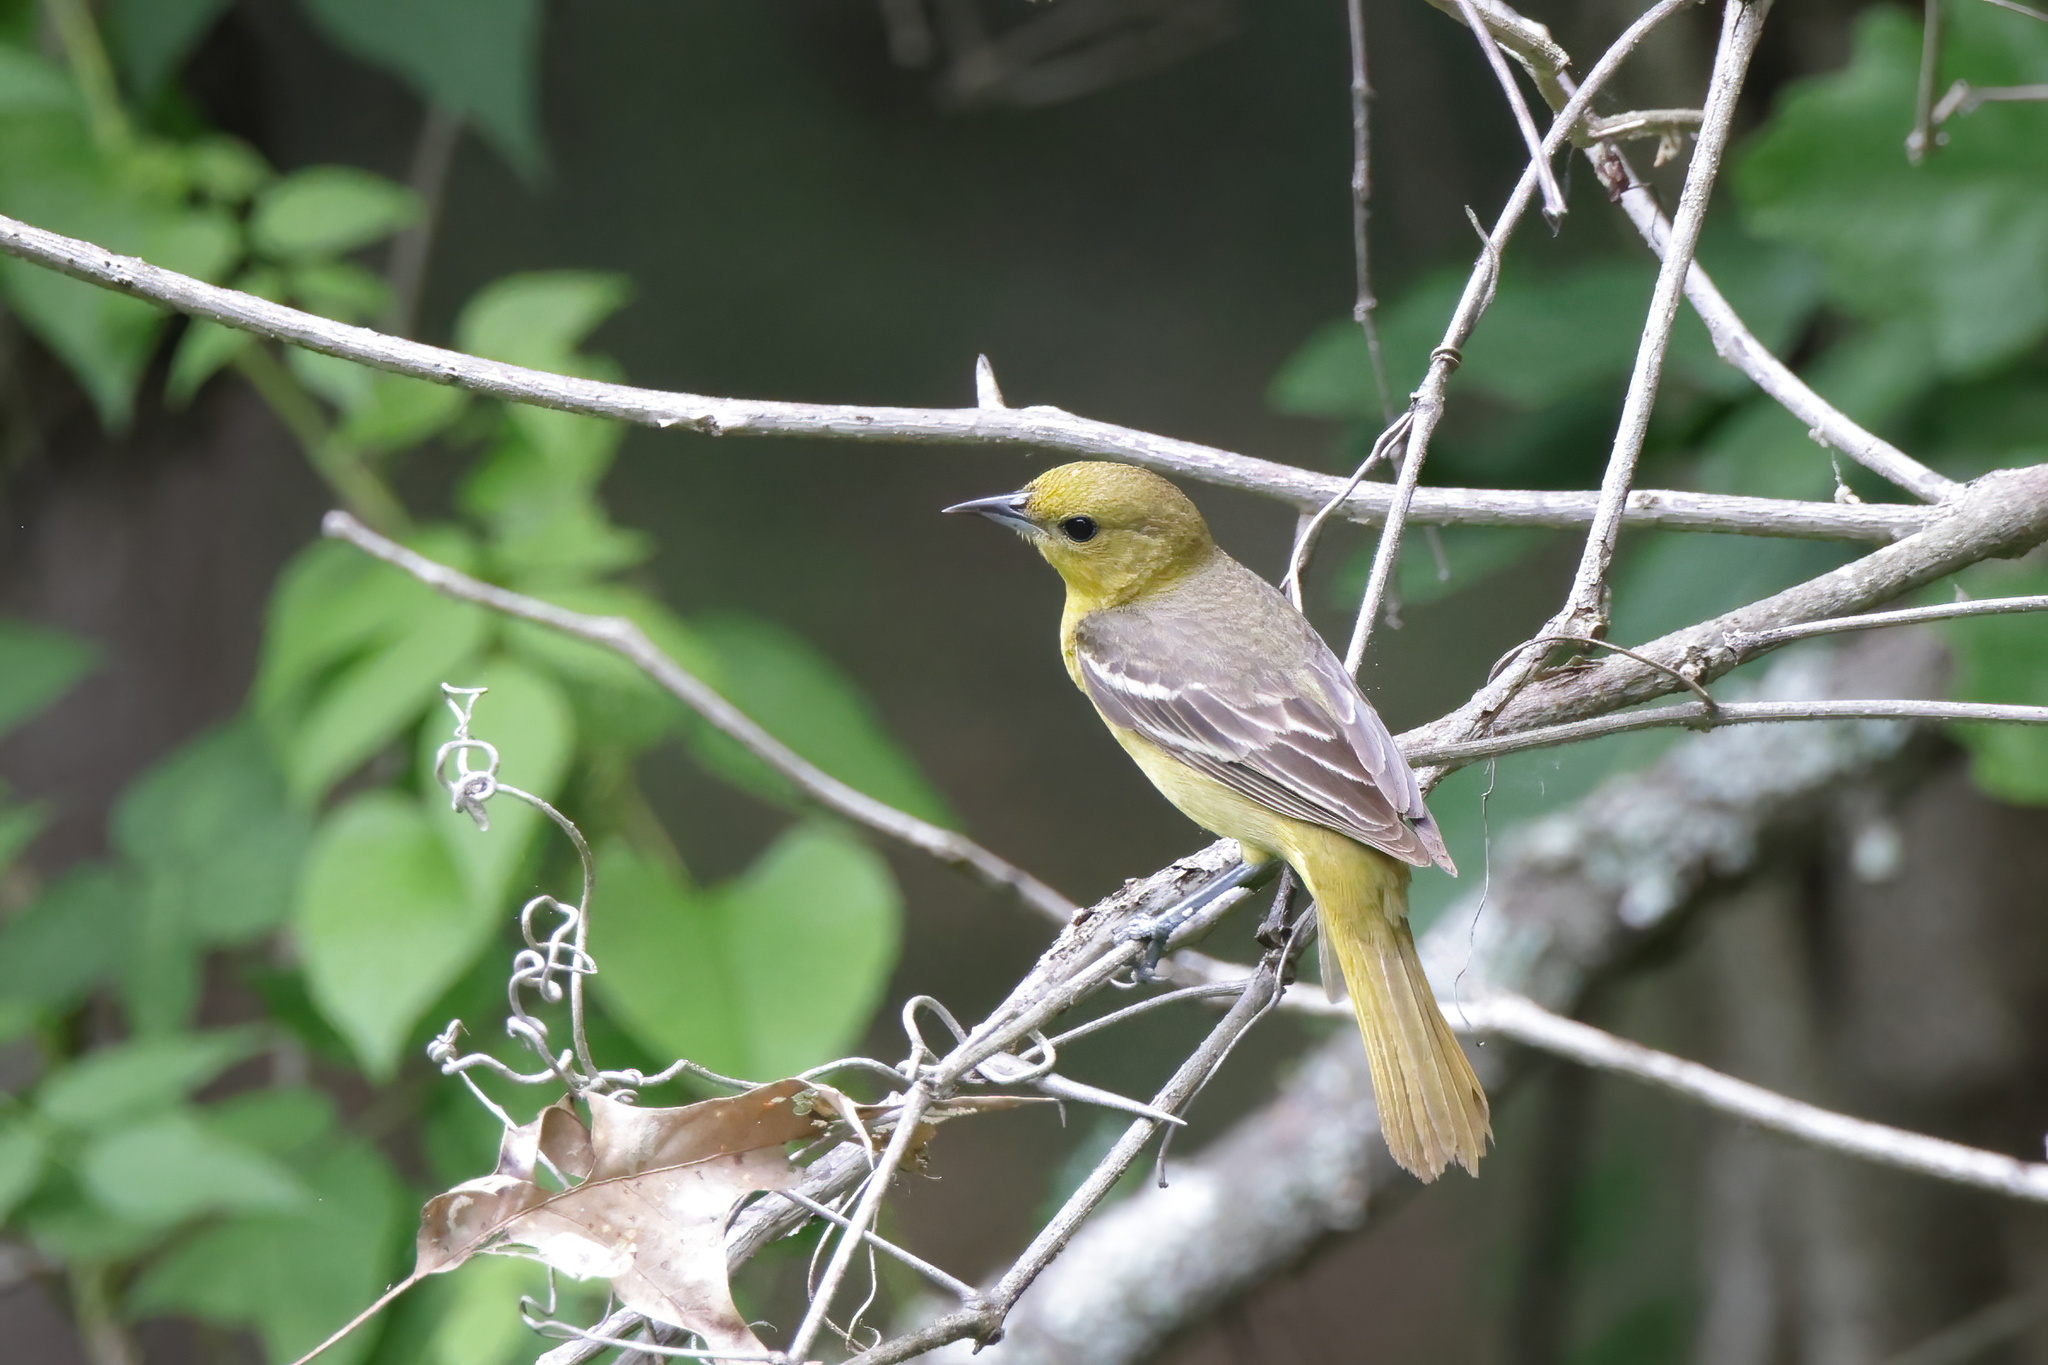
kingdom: Animalia
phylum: Chordata
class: Aves
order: Passeriformes
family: Icteridae
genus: Icterus
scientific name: Icterus spurius
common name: Orchard oriole
